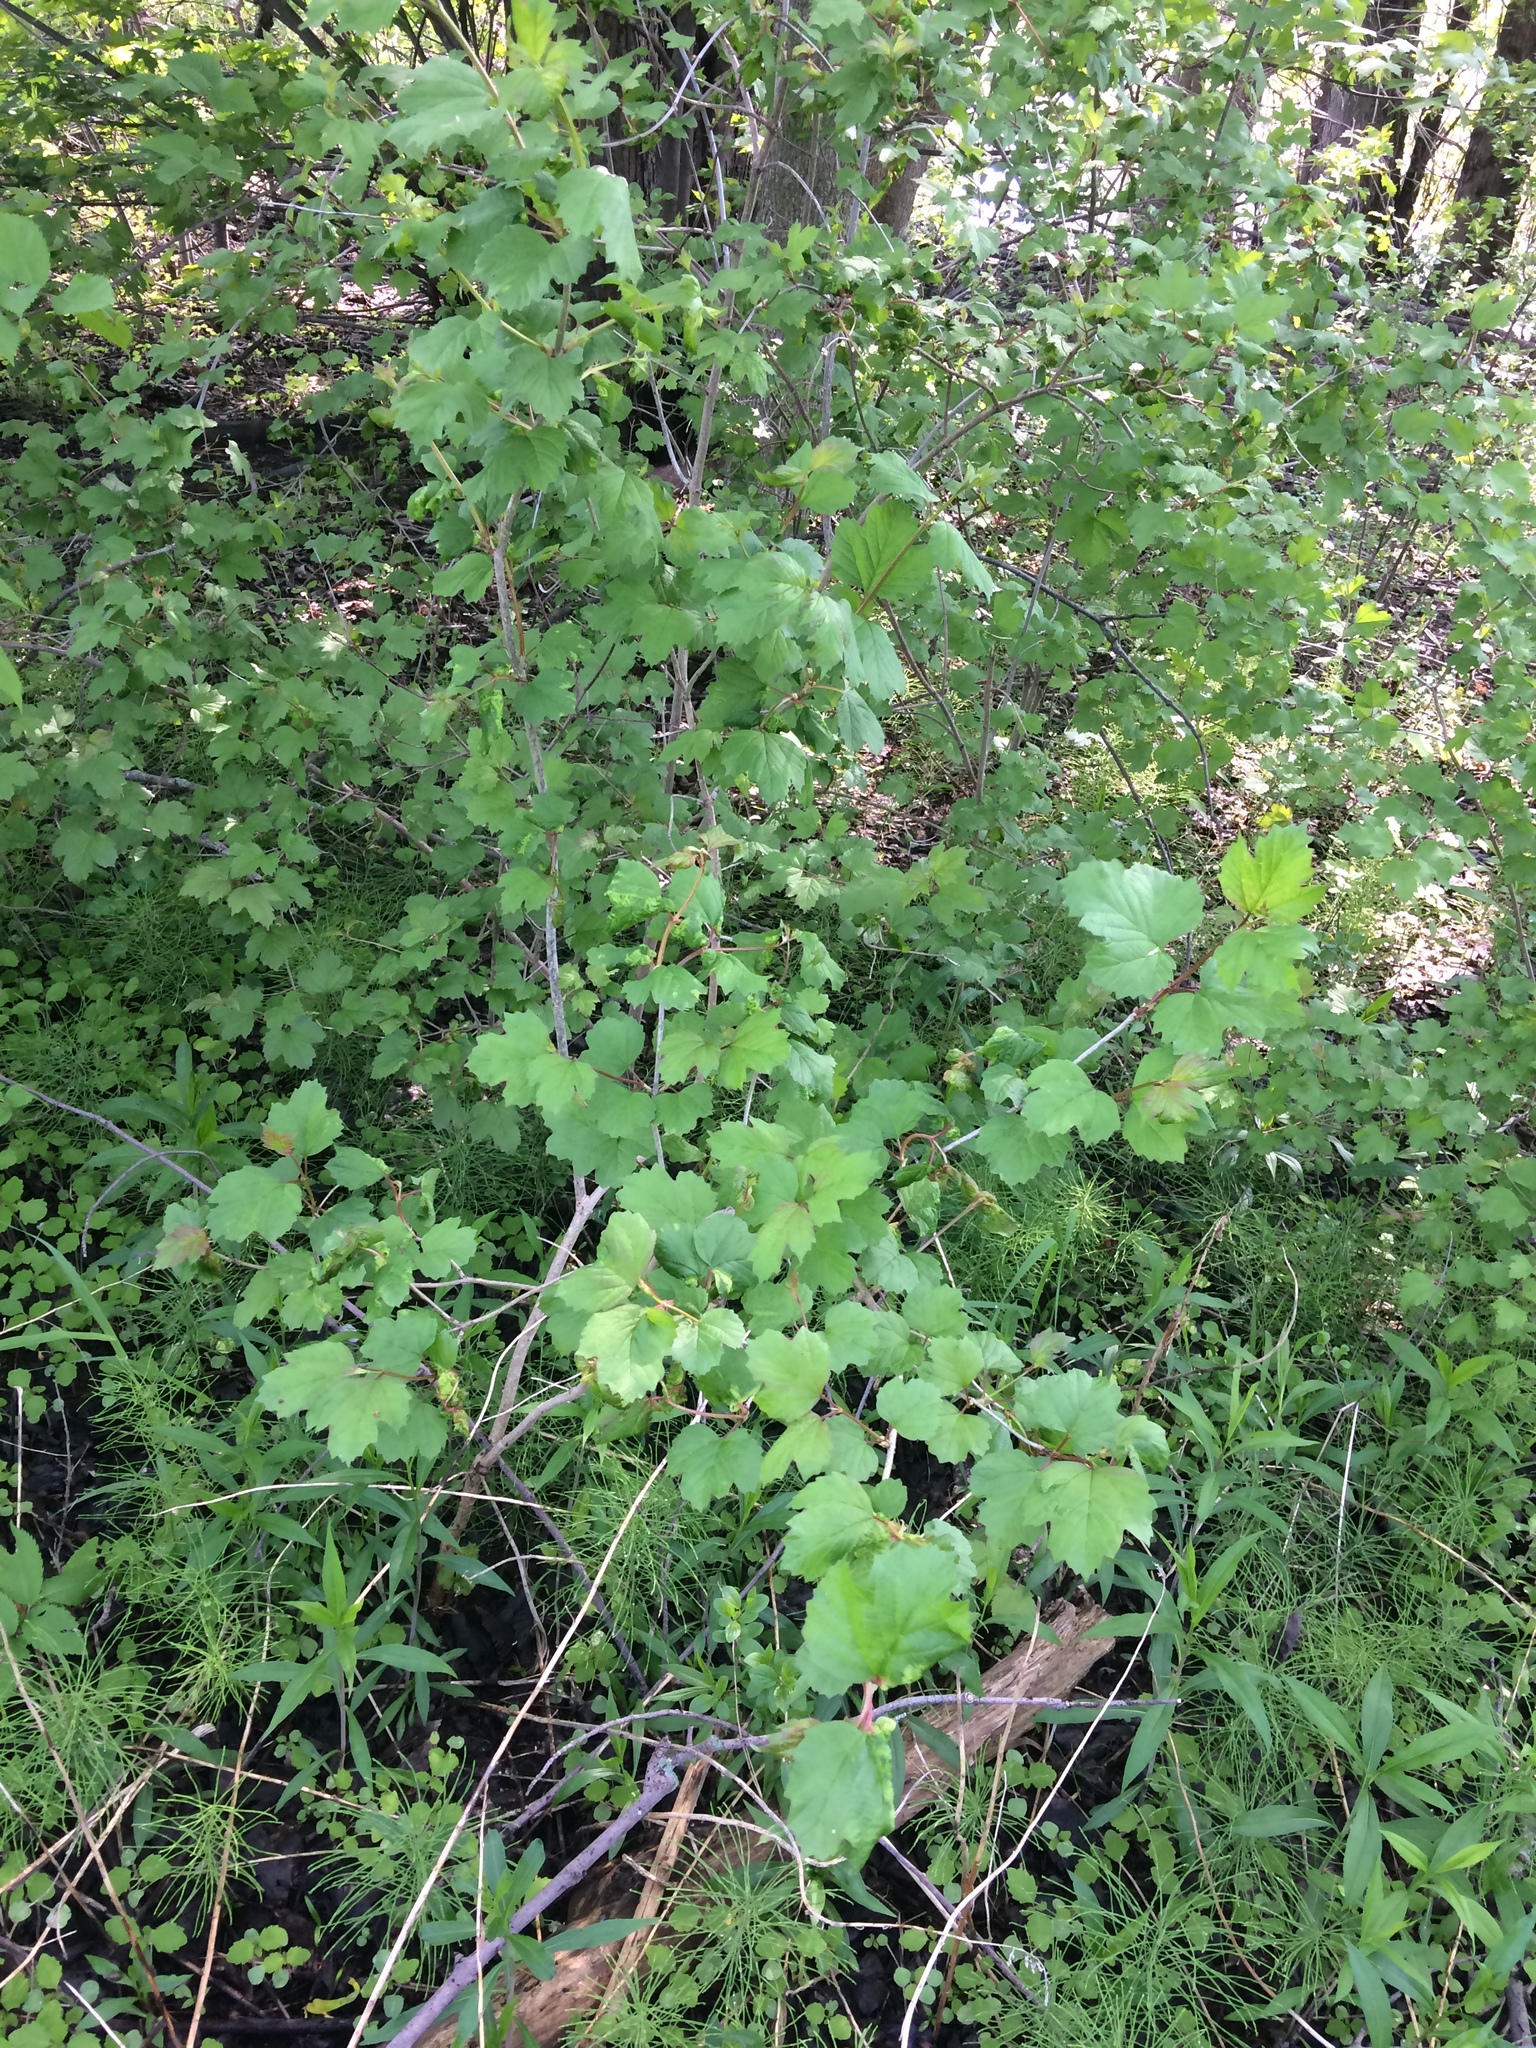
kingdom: Plantae
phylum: Tracheophyta
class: Magnoliopsida
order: Dipsacales
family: Viburnaceae
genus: Viburnum
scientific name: Viburnum opulus
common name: Guelder-rose
